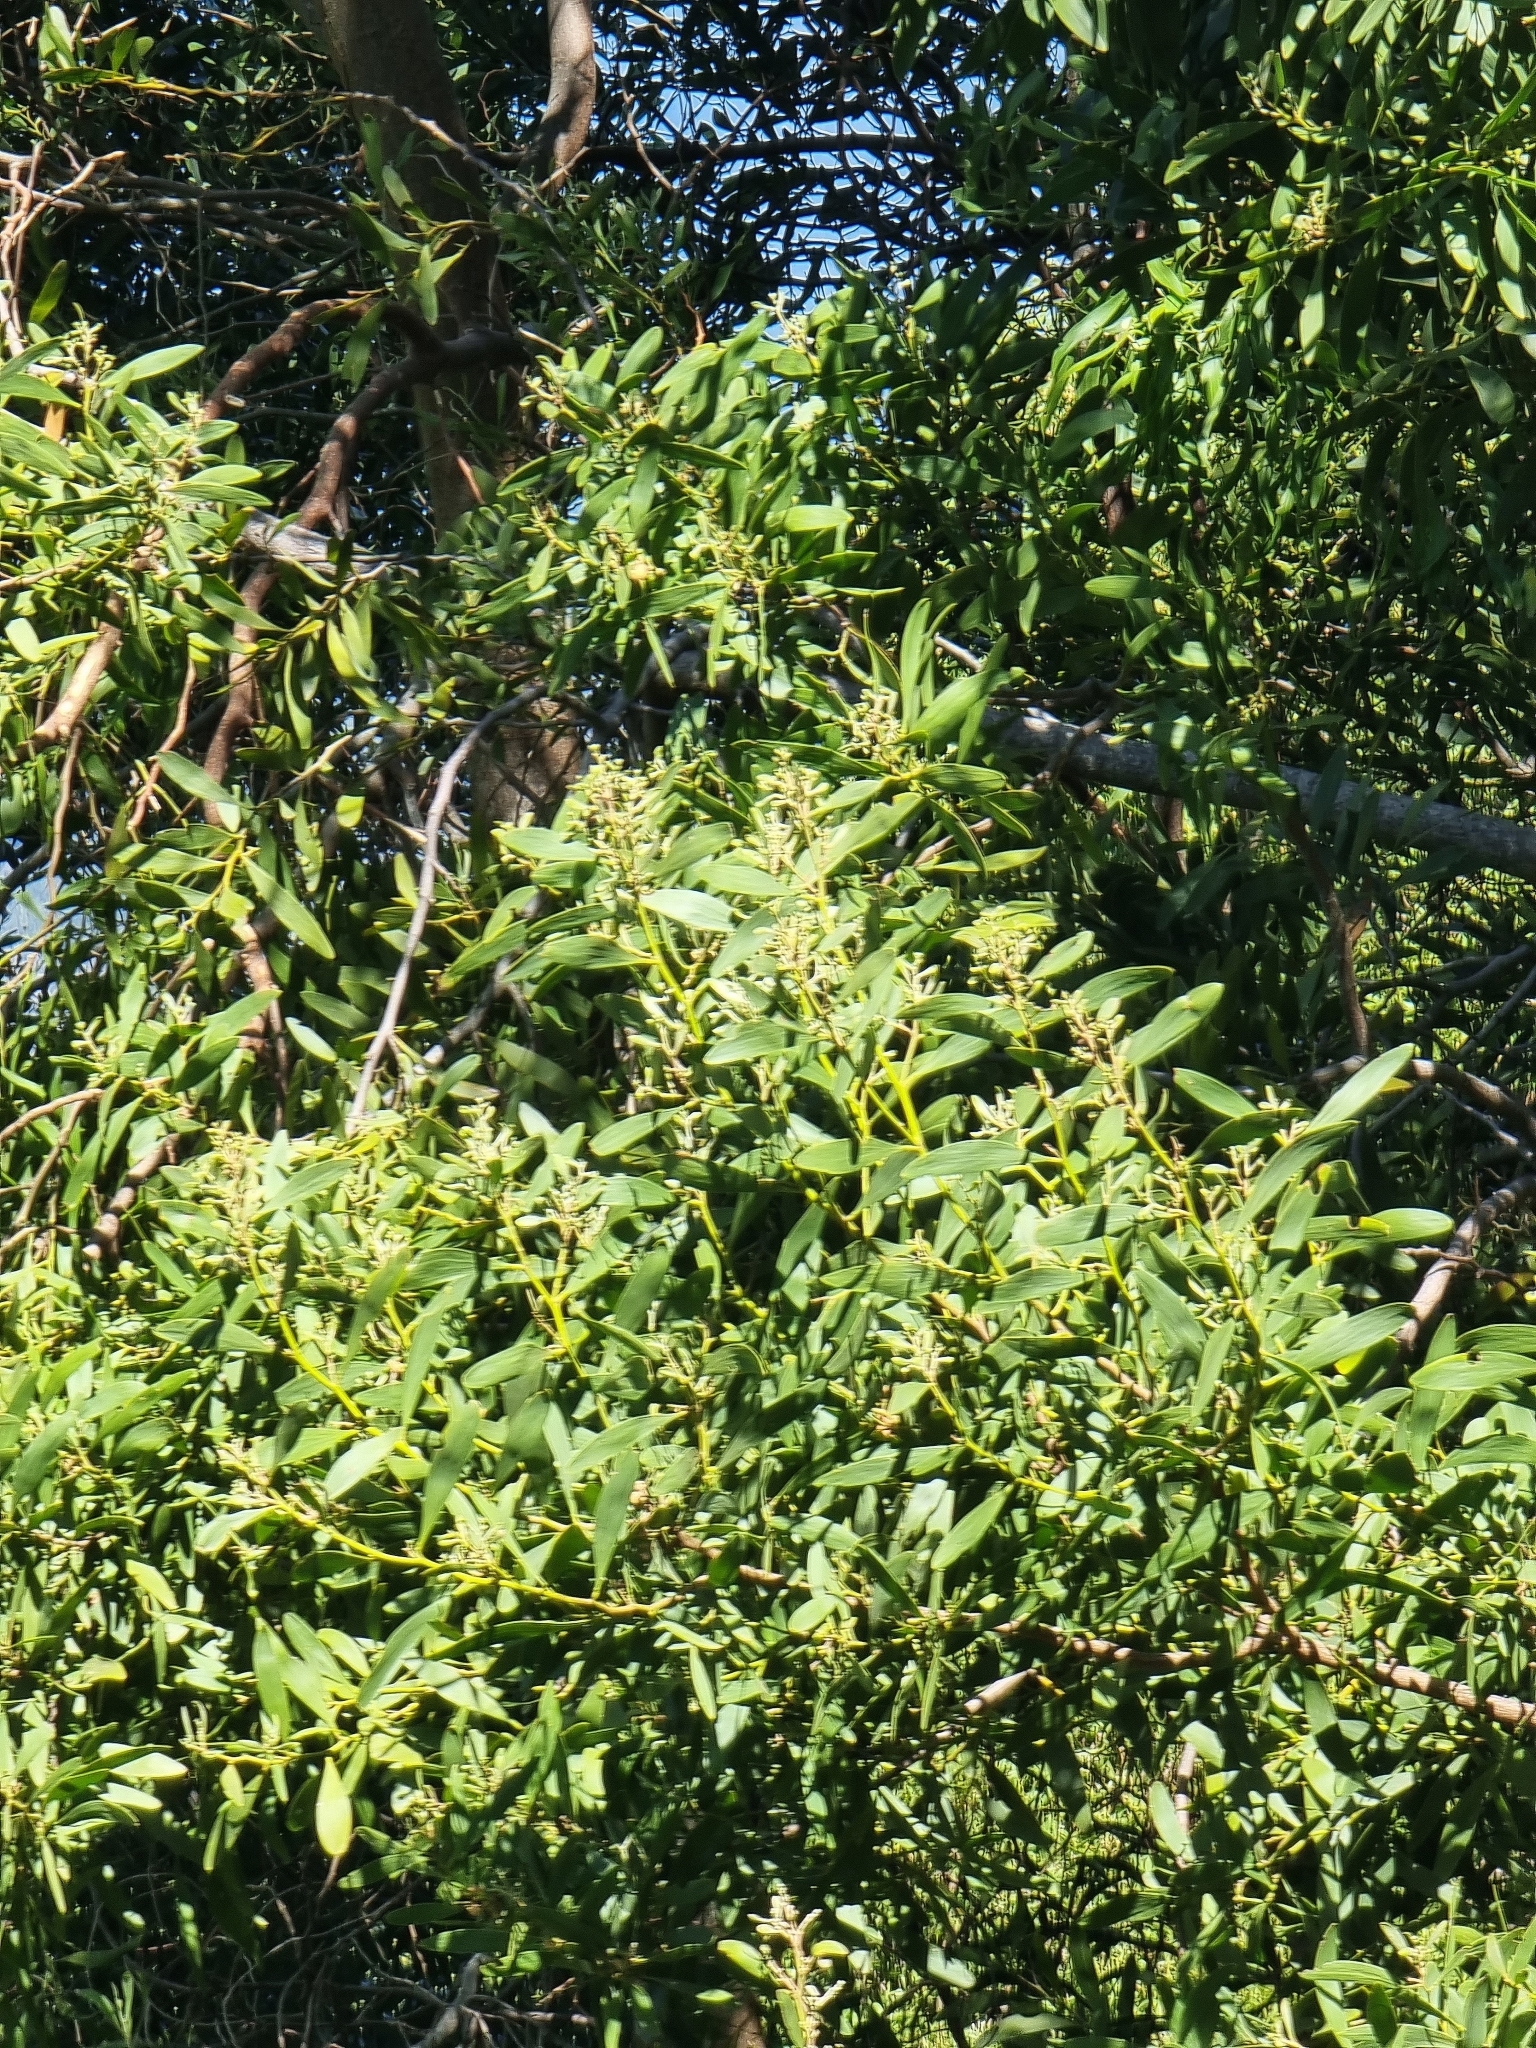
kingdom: Plantae
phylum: Tracheophyta
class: Magnoliopsida
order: Fabales
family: Fabaceae
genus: Acacia
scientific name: Acacia melanoxylon
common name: Blackwood
